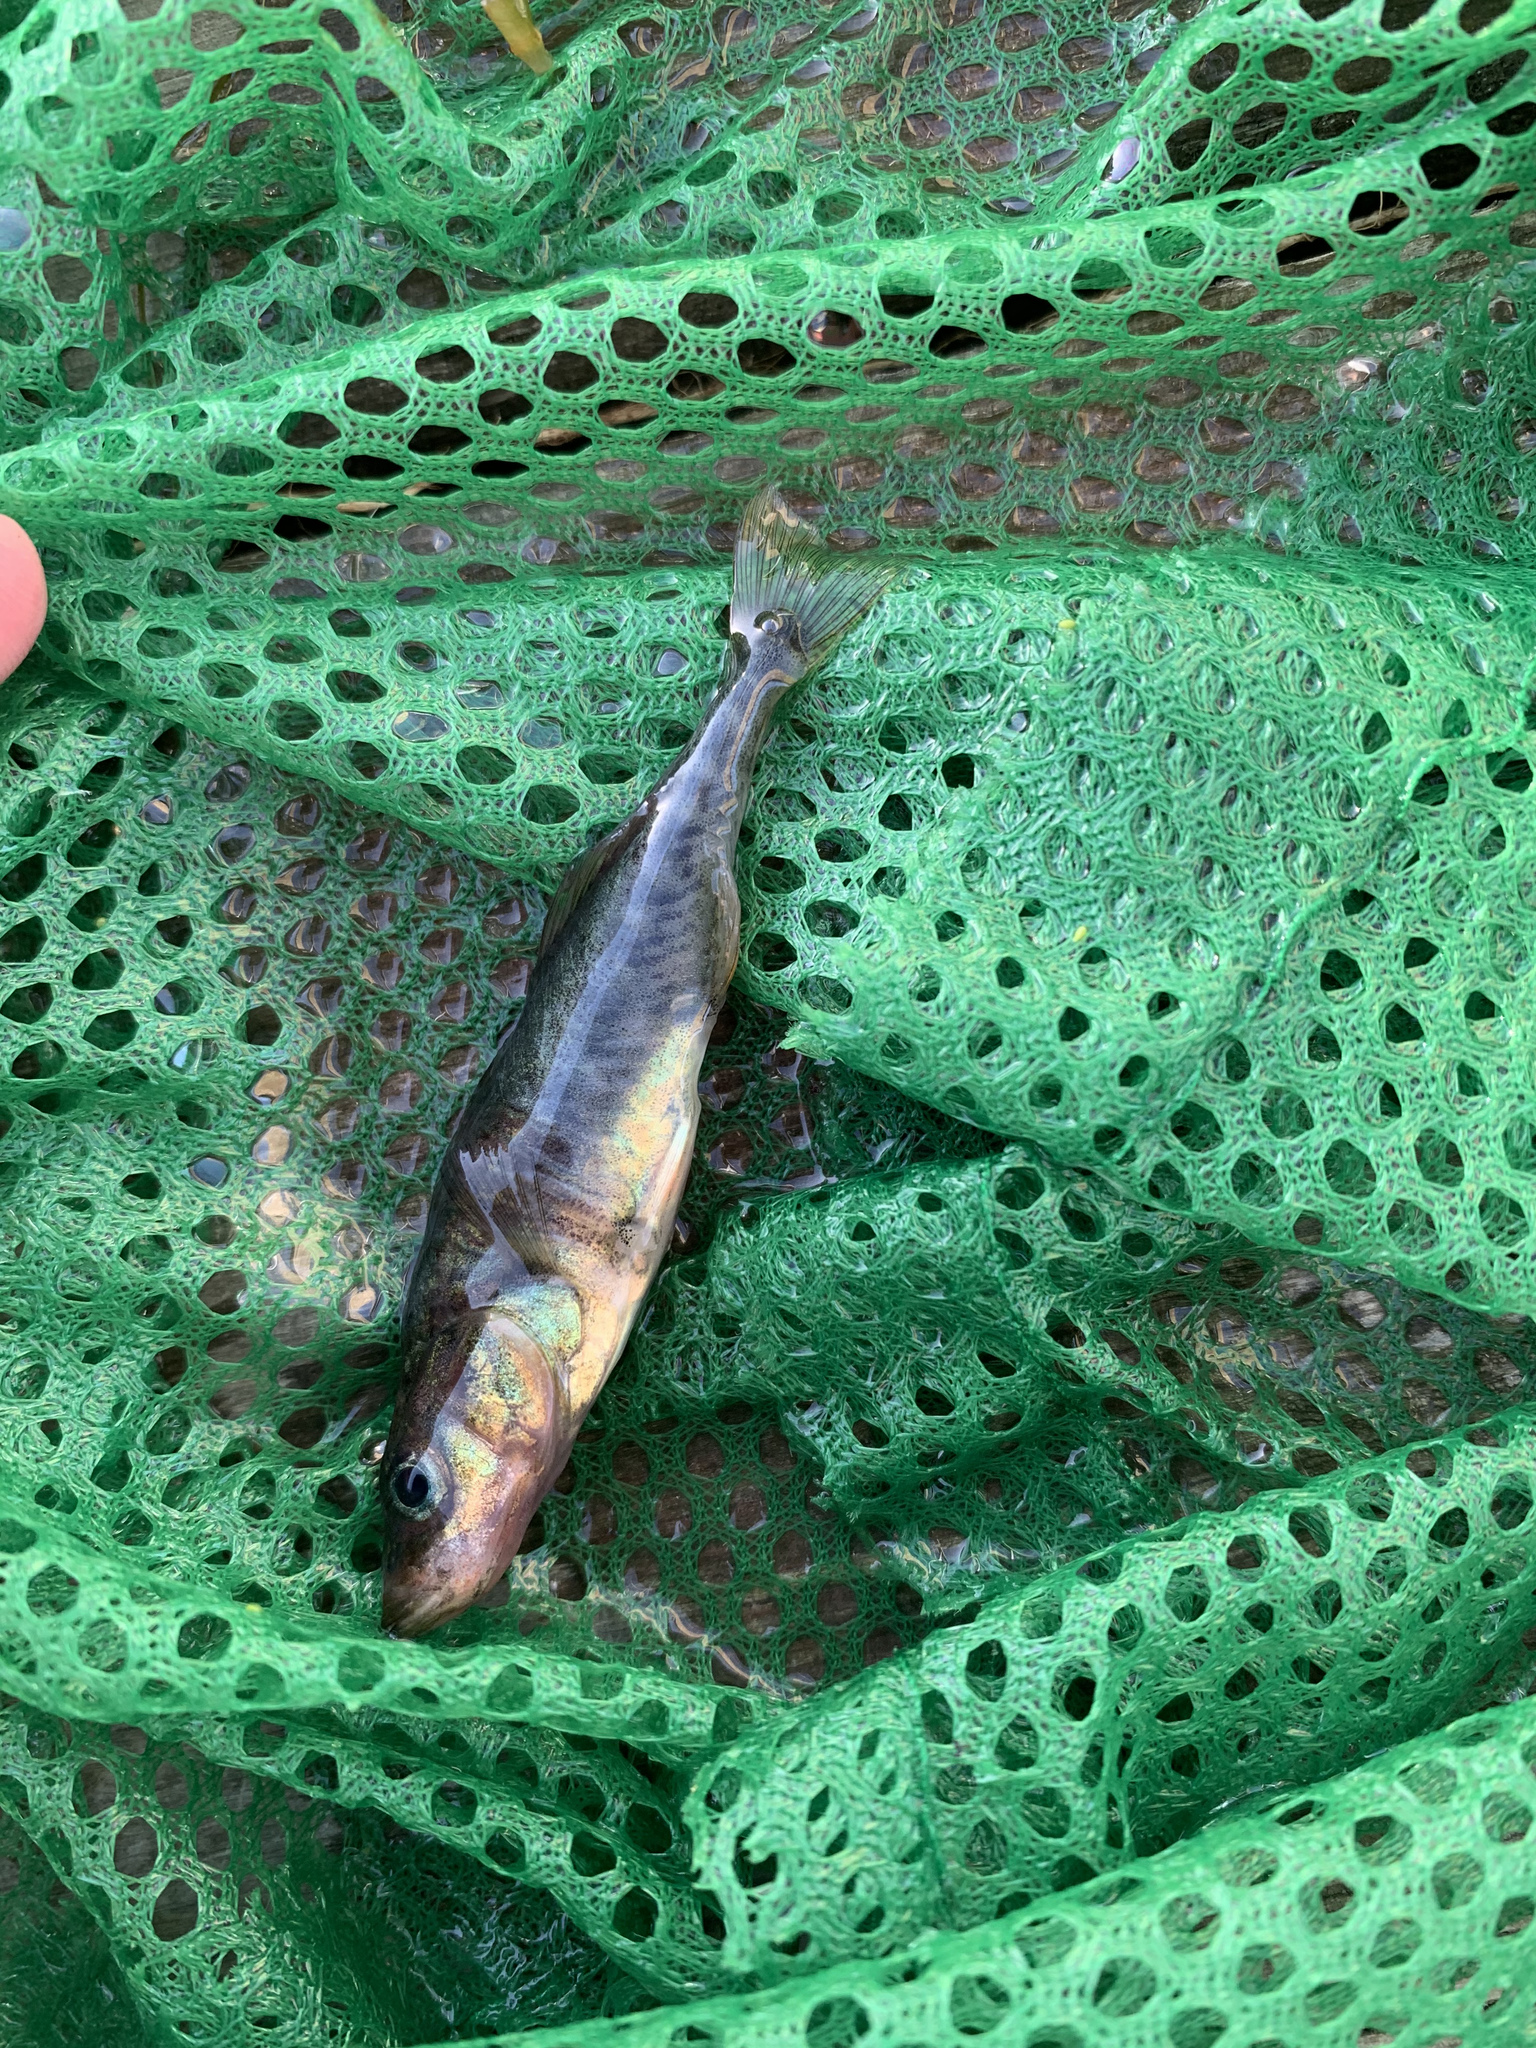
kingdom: Animalia
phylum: Chordata
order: Gasterosteiformes
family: Gasterosteidae
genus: Gasterosteus
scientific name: Gasterosteus aculeatus
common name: Three-spined stickleback
